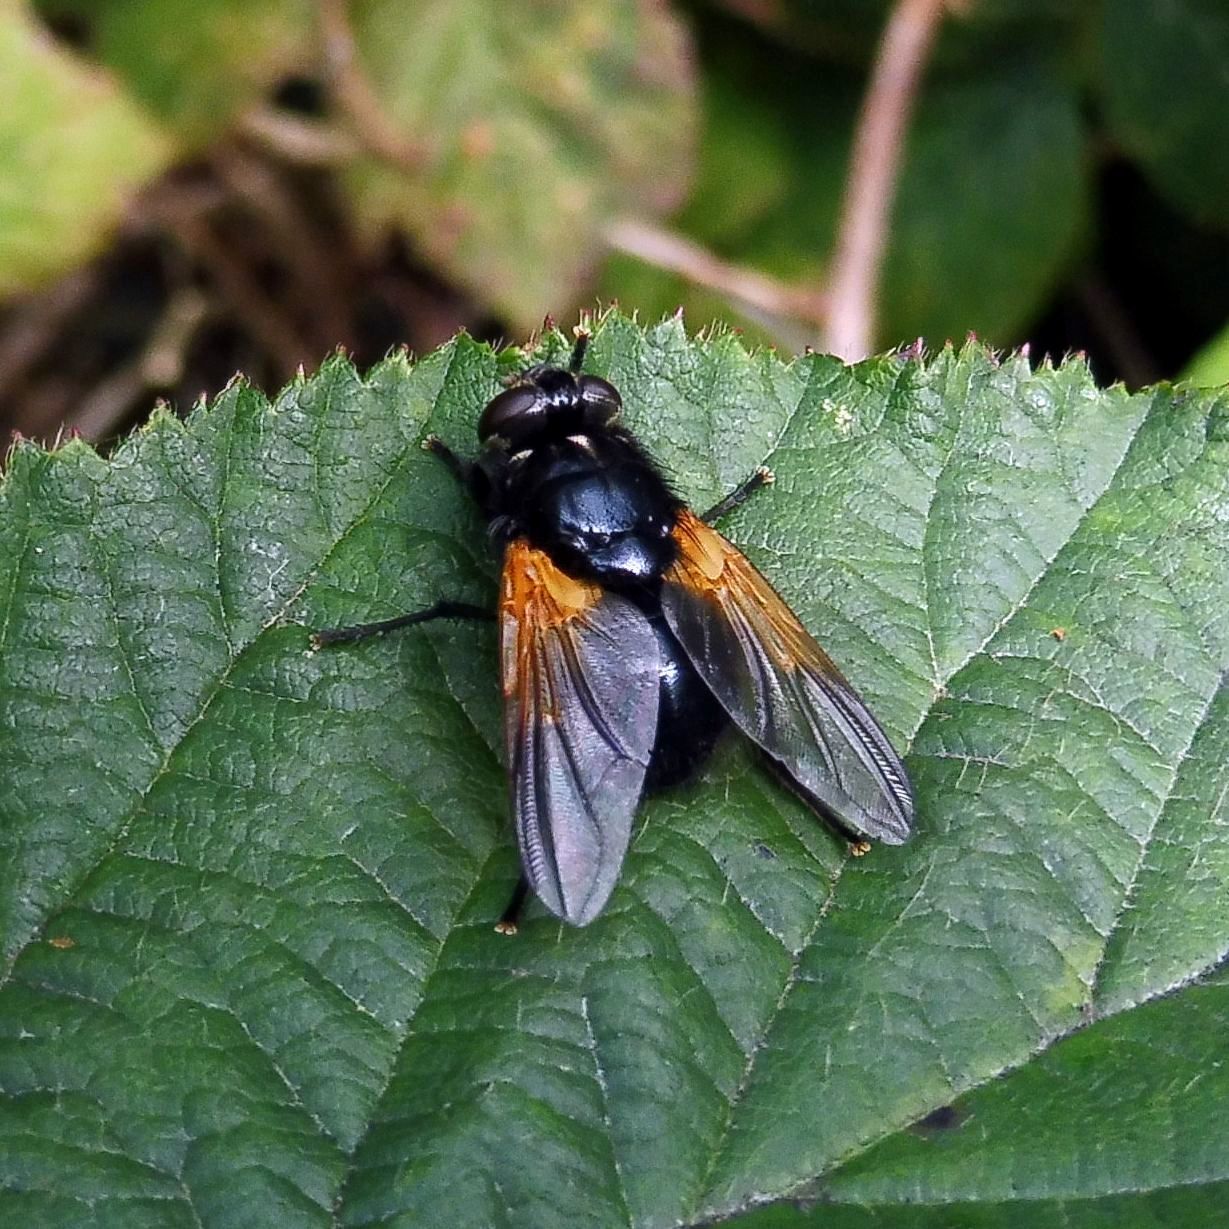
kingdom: Animalia
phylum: Arthropoda
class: Insecta
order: Diptera
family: Muscidae
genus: Mesembrina
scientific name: Mesembrina meridiana
